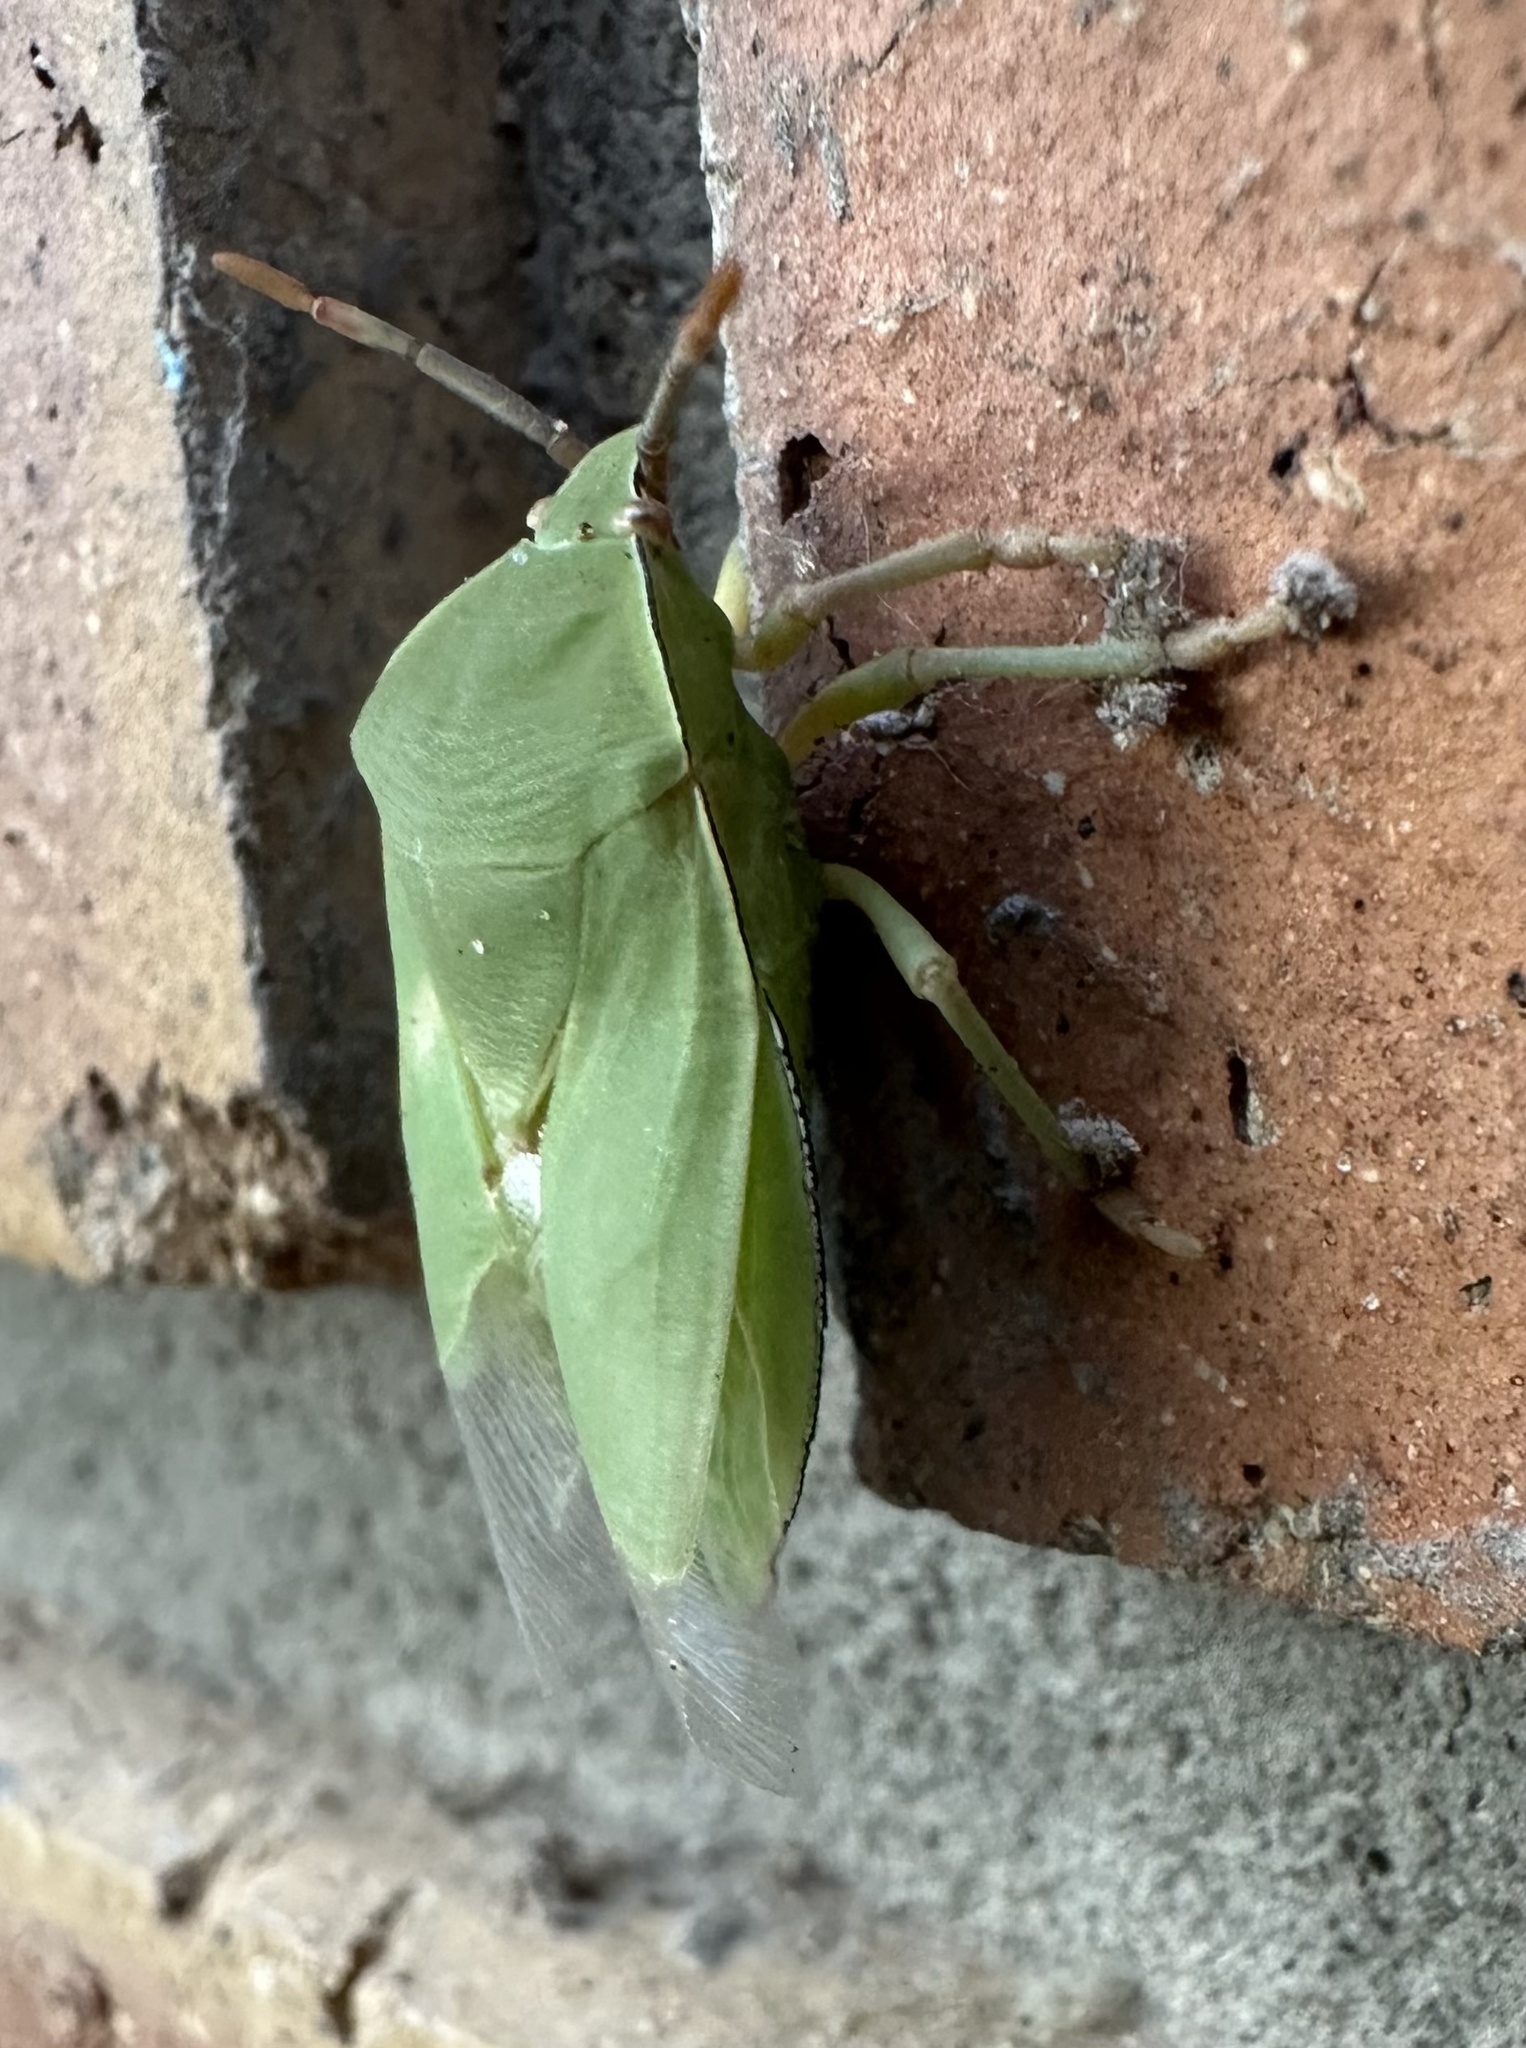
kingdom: Animalia
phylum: Arthropoda
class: Insecta
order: Hemiptera
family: Tessaratomidae
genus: Encosternum
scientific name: Encosternum delegorguei
